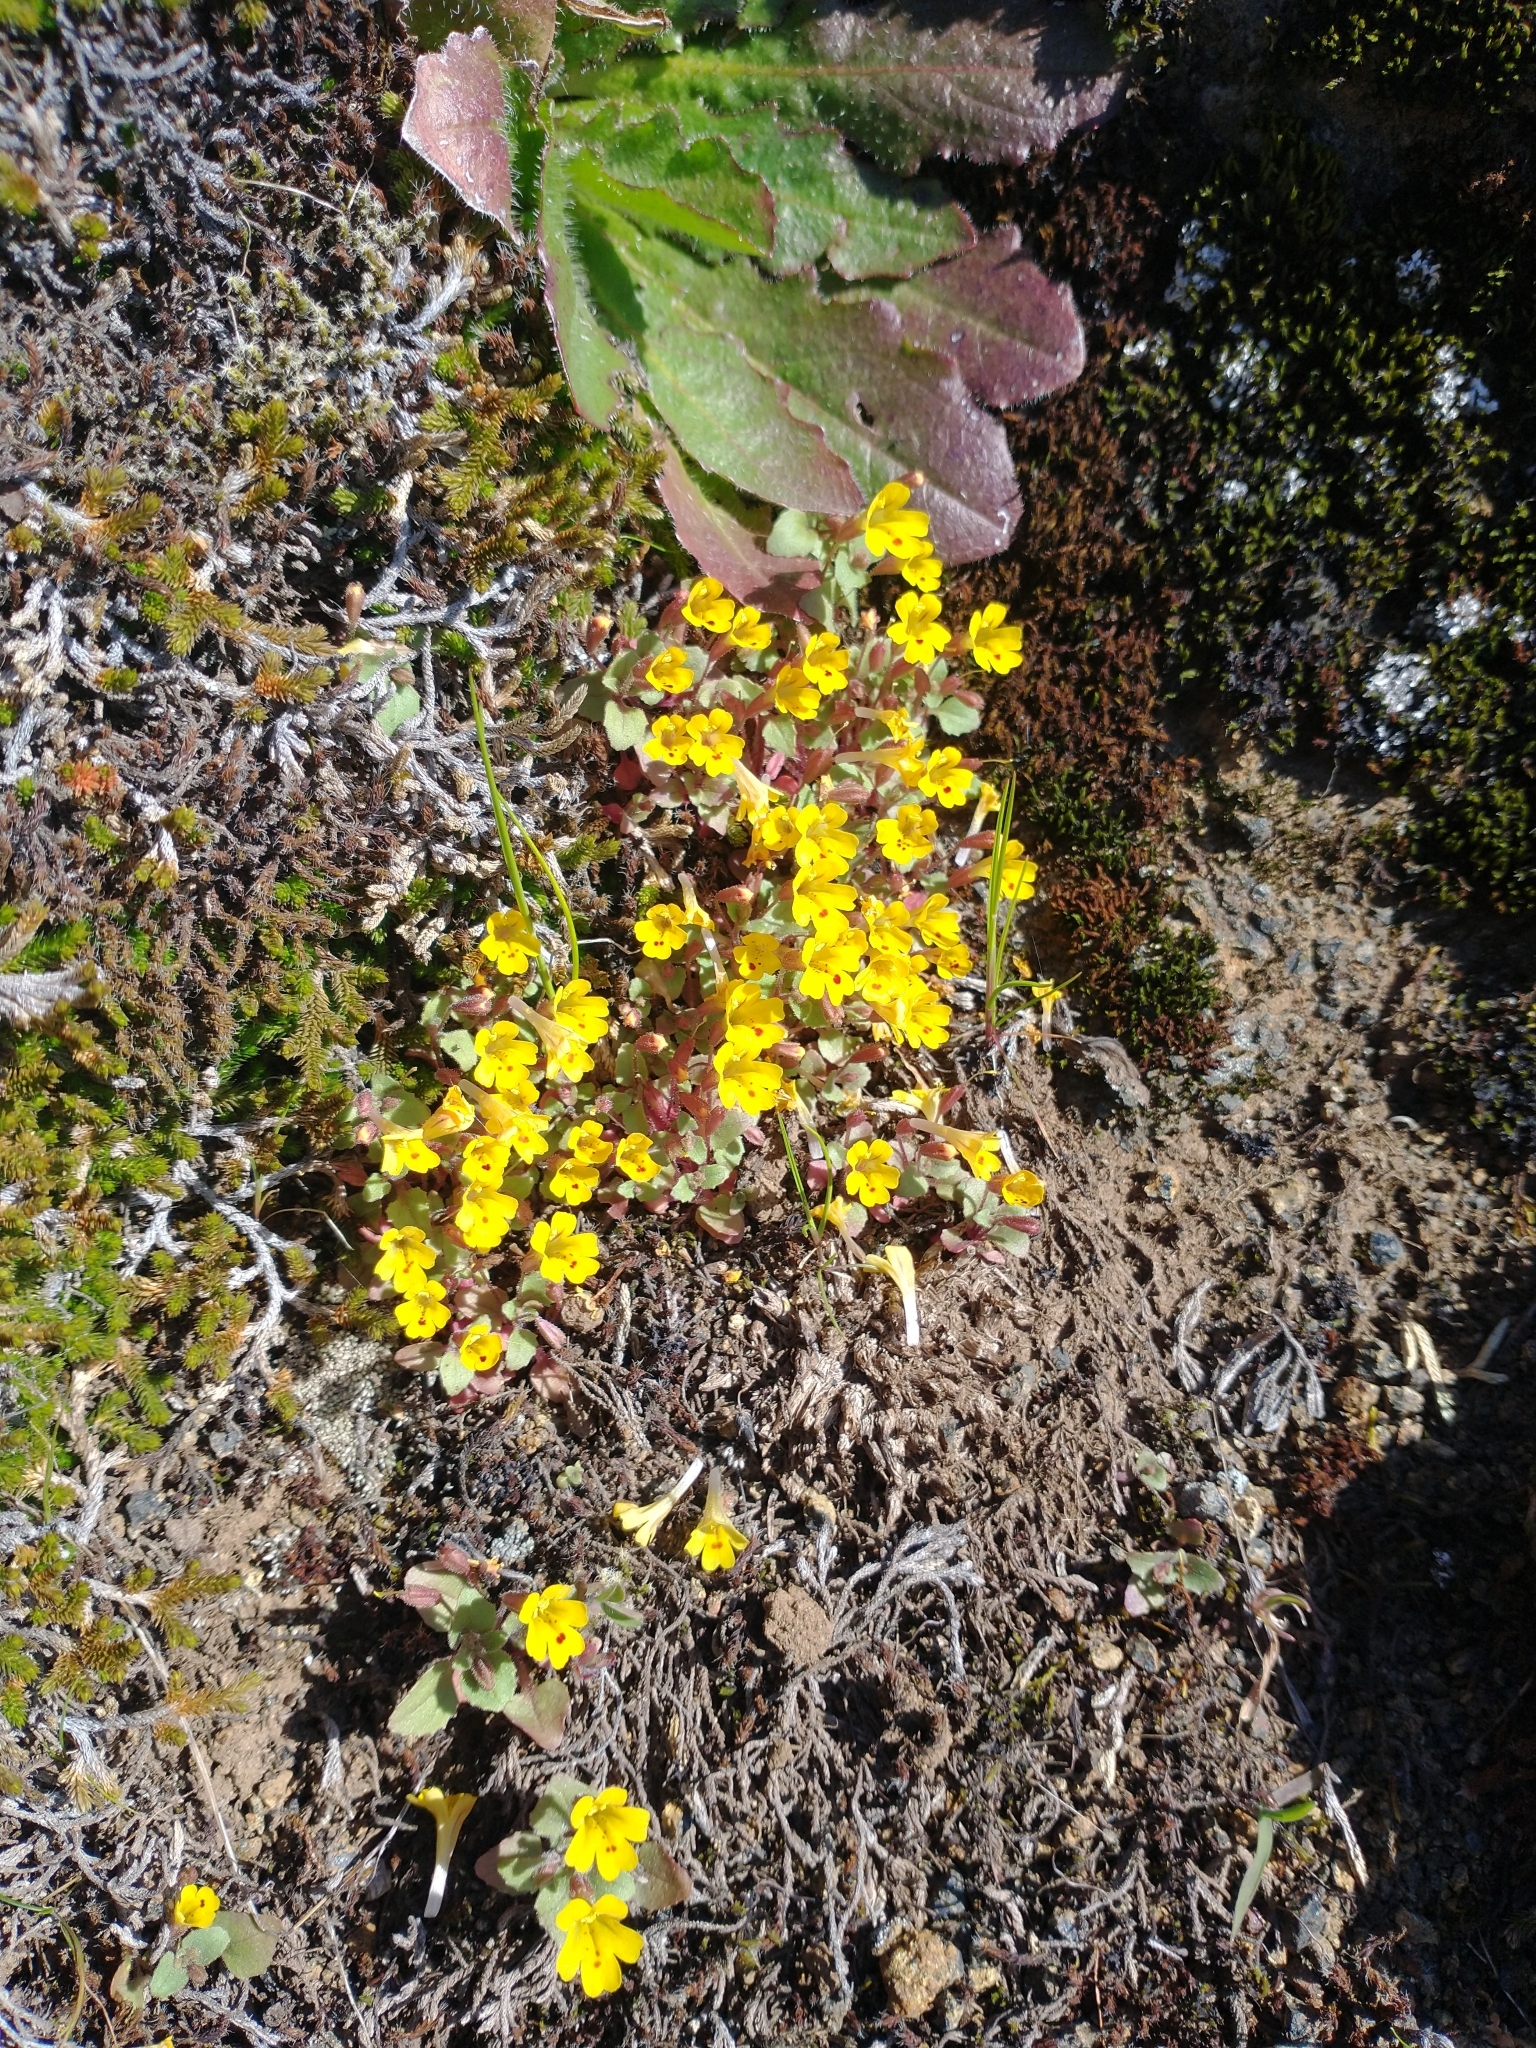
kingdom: Plantae
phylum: Tracheophyta
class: Magnoliopsida
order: Lamiales
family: Phrymaceae
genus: Erythranthe
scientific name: Erythranthe alsinoides
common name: Chickweed monkeyflower
